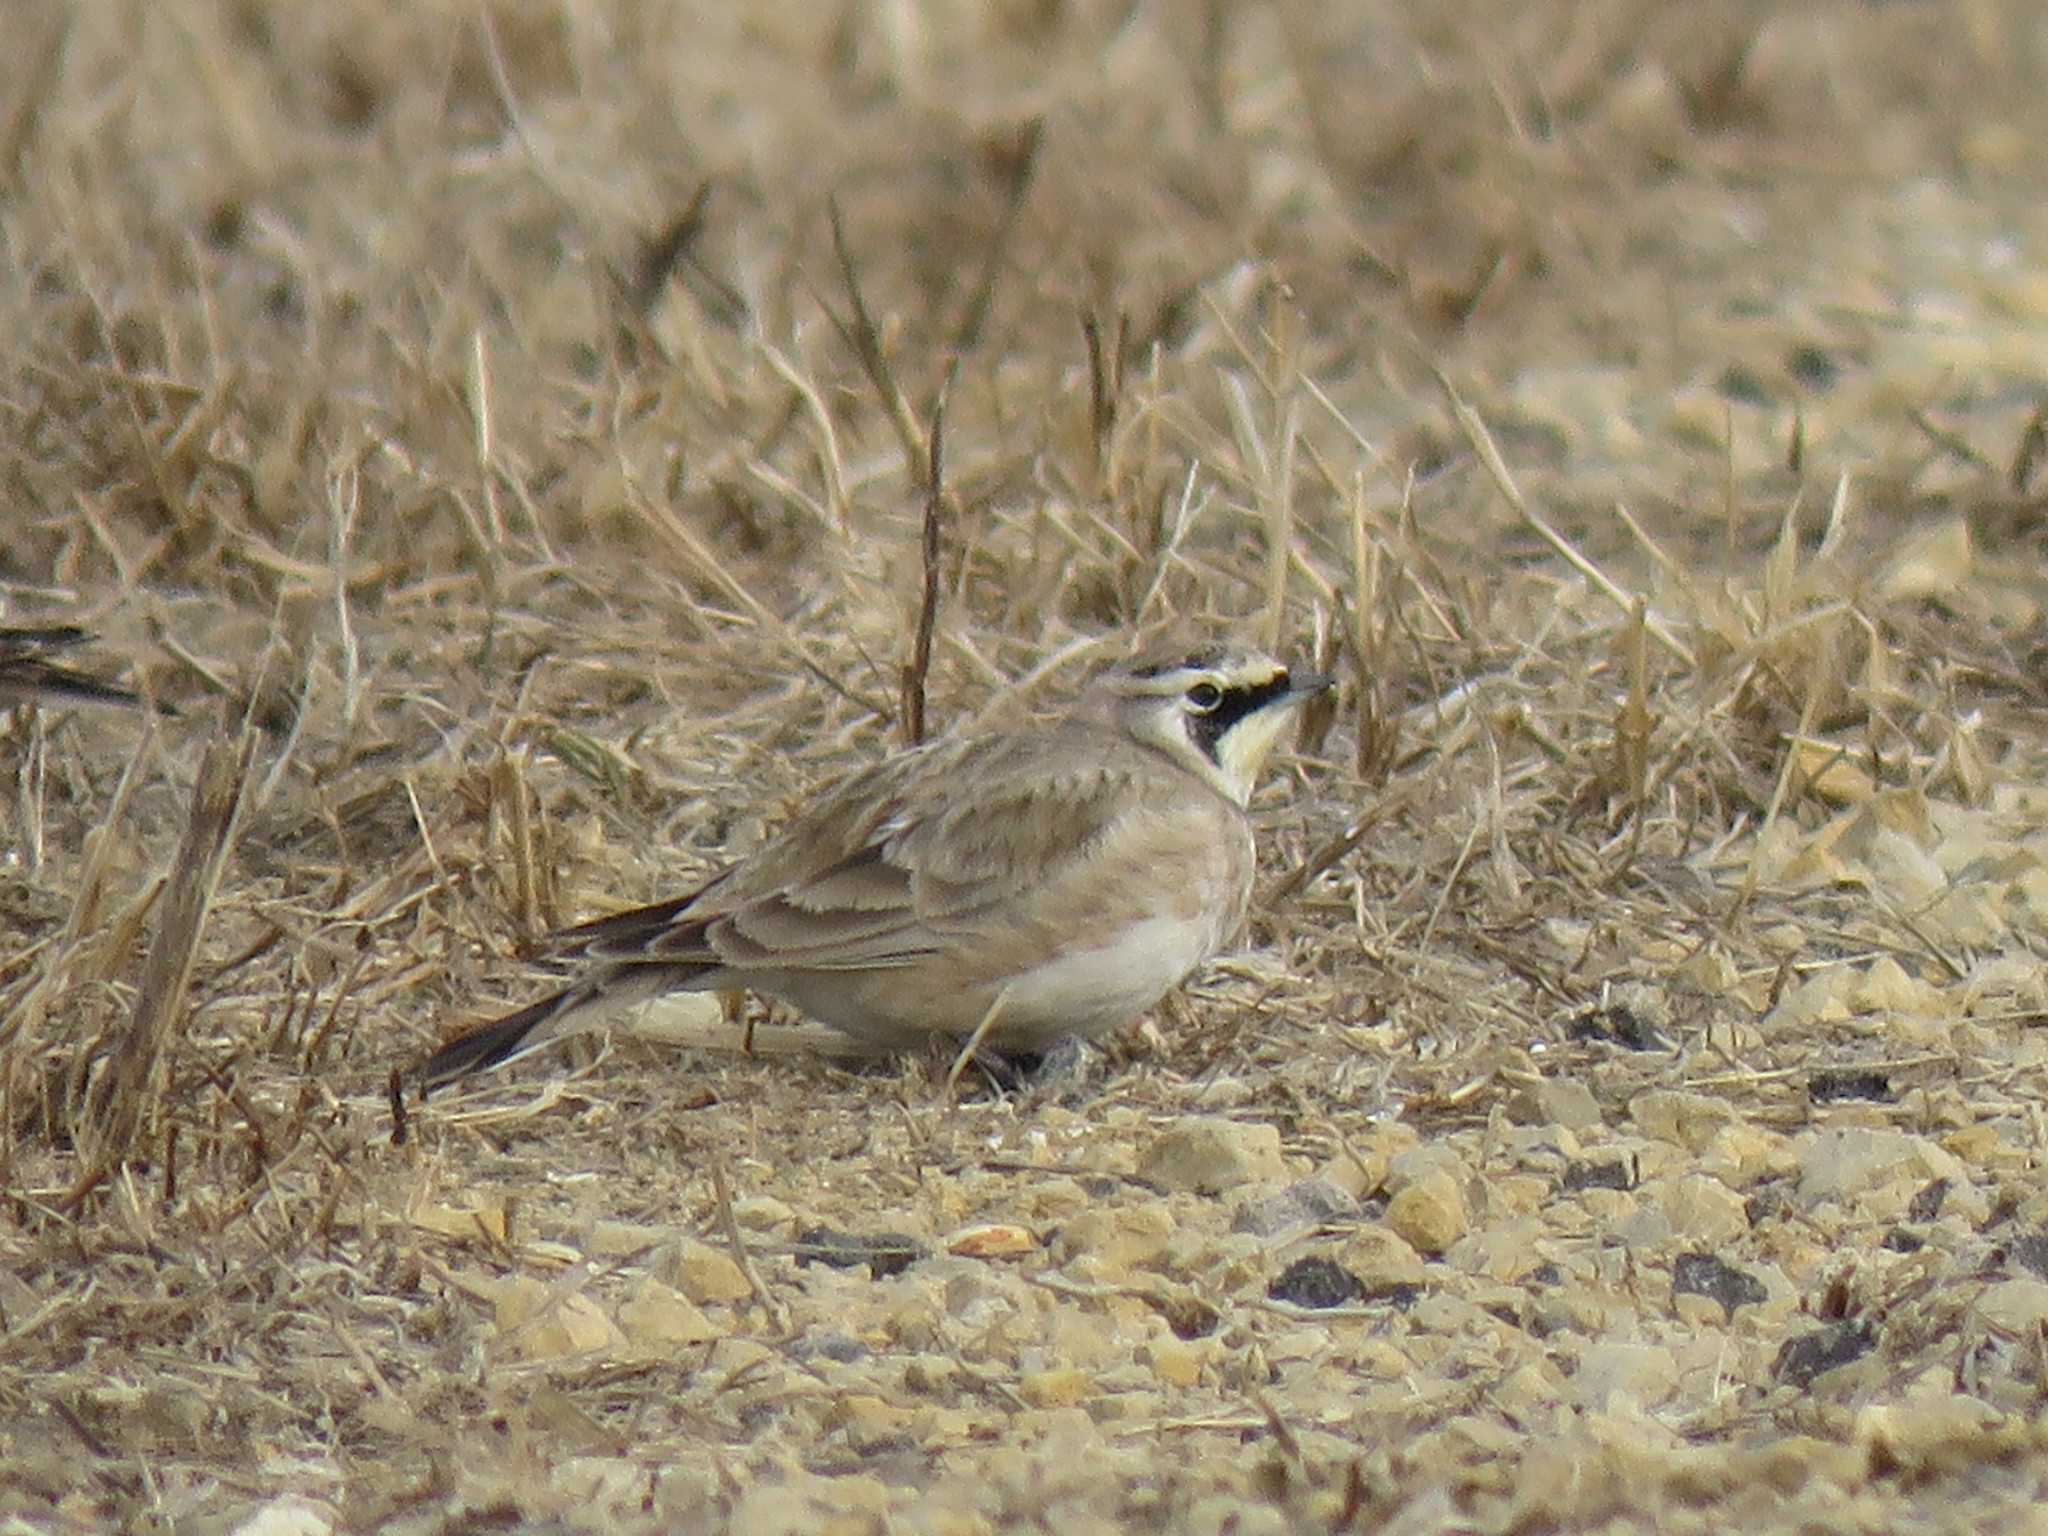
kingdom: Animalia
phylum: Chordata
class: Aves
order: Passeriformes
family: Alaudidae
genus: Eremophila
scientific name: Eremophila alpestris
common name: Horned lark
